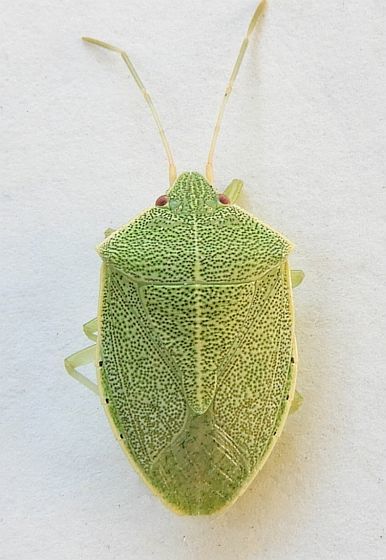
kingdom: Animalia
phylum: Arthropoda
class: Insecta
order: Hemiptera
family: Pentatomidae
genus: Chlorocoris
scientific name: Chlorocoris hebetatus
